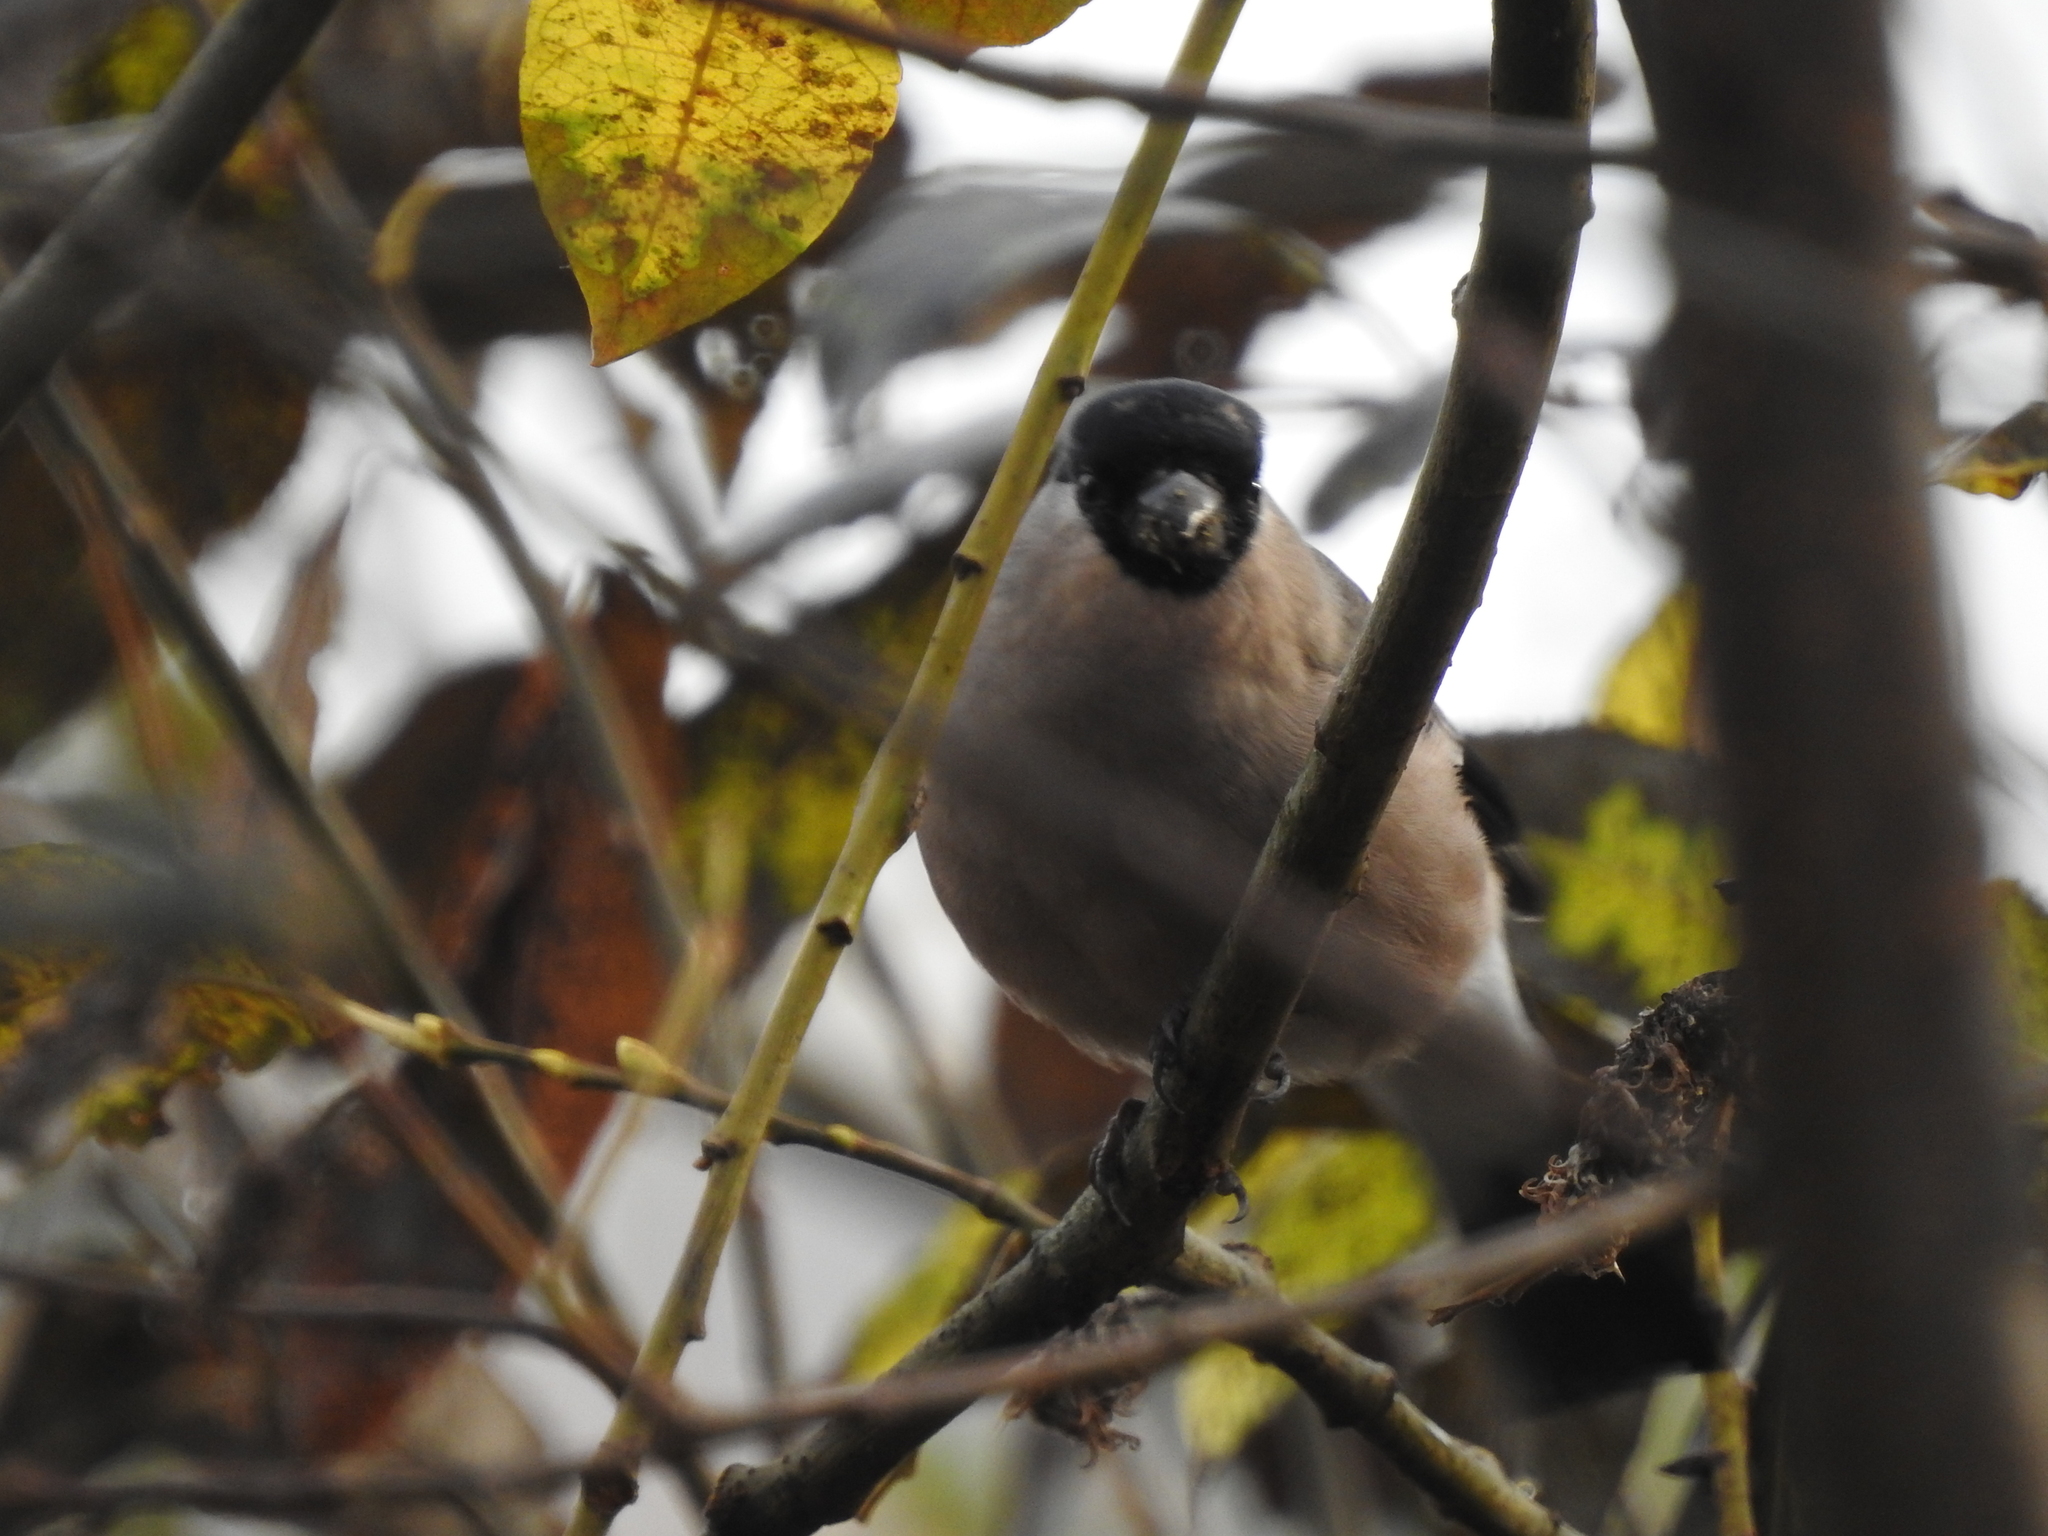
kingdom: Animalia
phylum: Chordata
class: Aves
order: Passeriformes
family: Fringillidae
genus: Pyrrhula
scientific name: Pyrrhula pyrrhula
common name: Eurasian bullfinch
